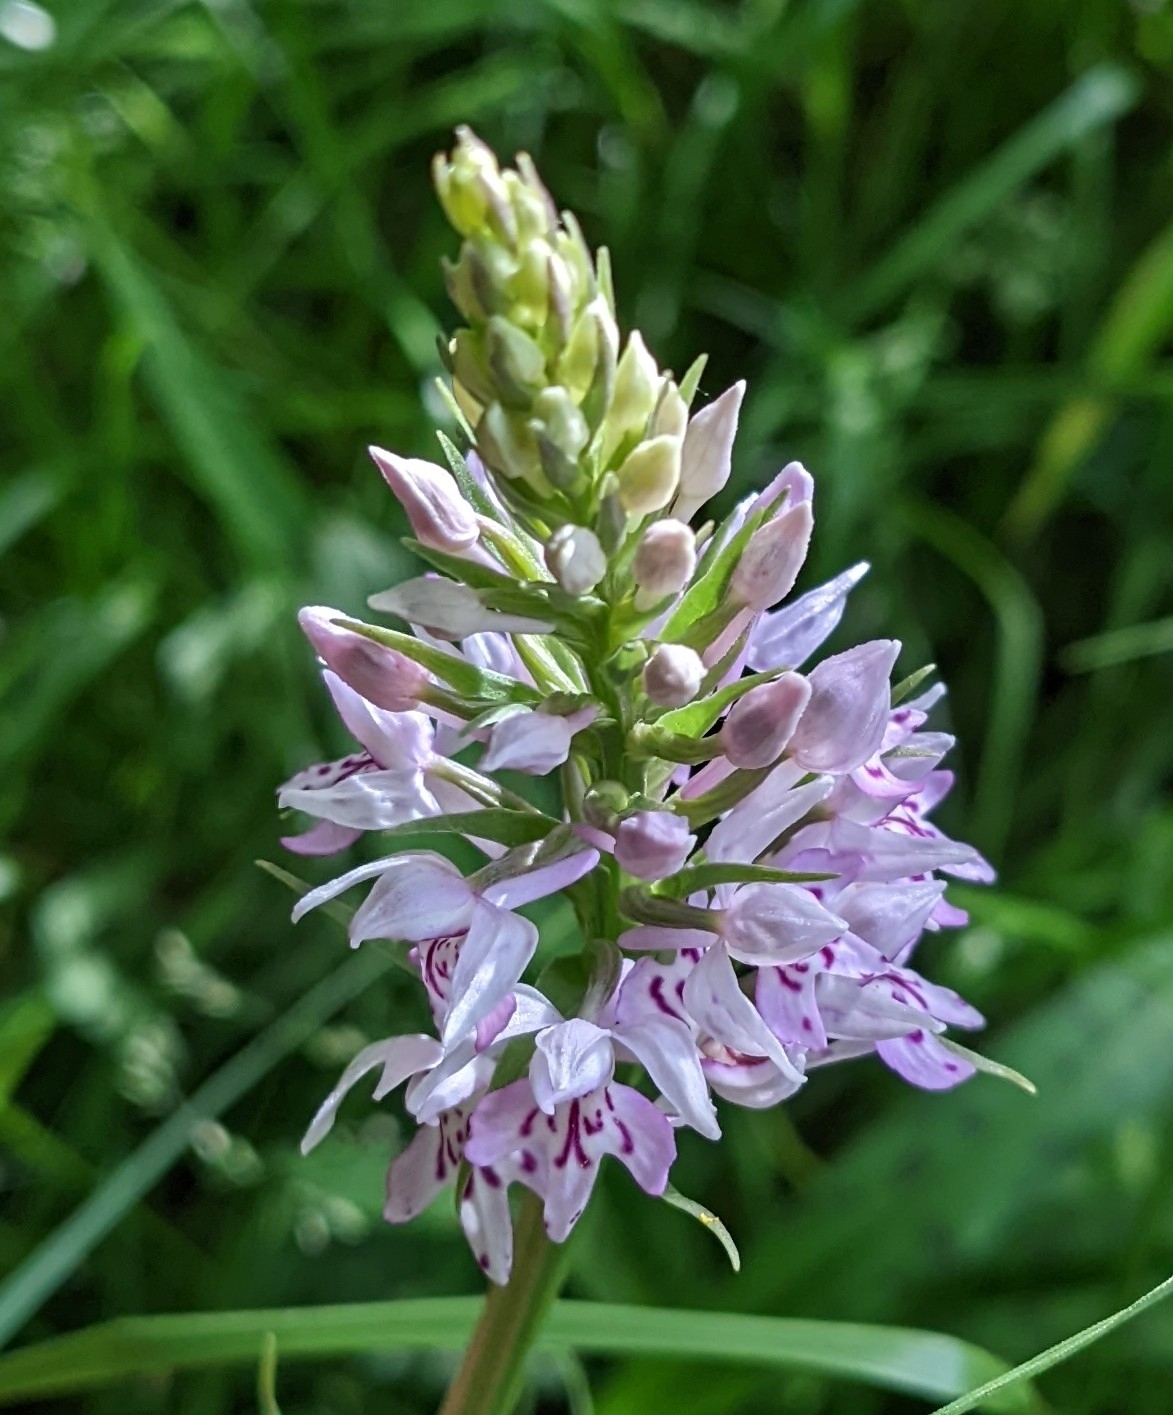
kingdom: Plantae
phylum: Tracheophyta
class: Liliopsida
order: Asparagales
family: Orchidaceae
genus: Dactylorhiza
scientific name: Dactylorhiza maculata
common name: Heath spotted-orchid
